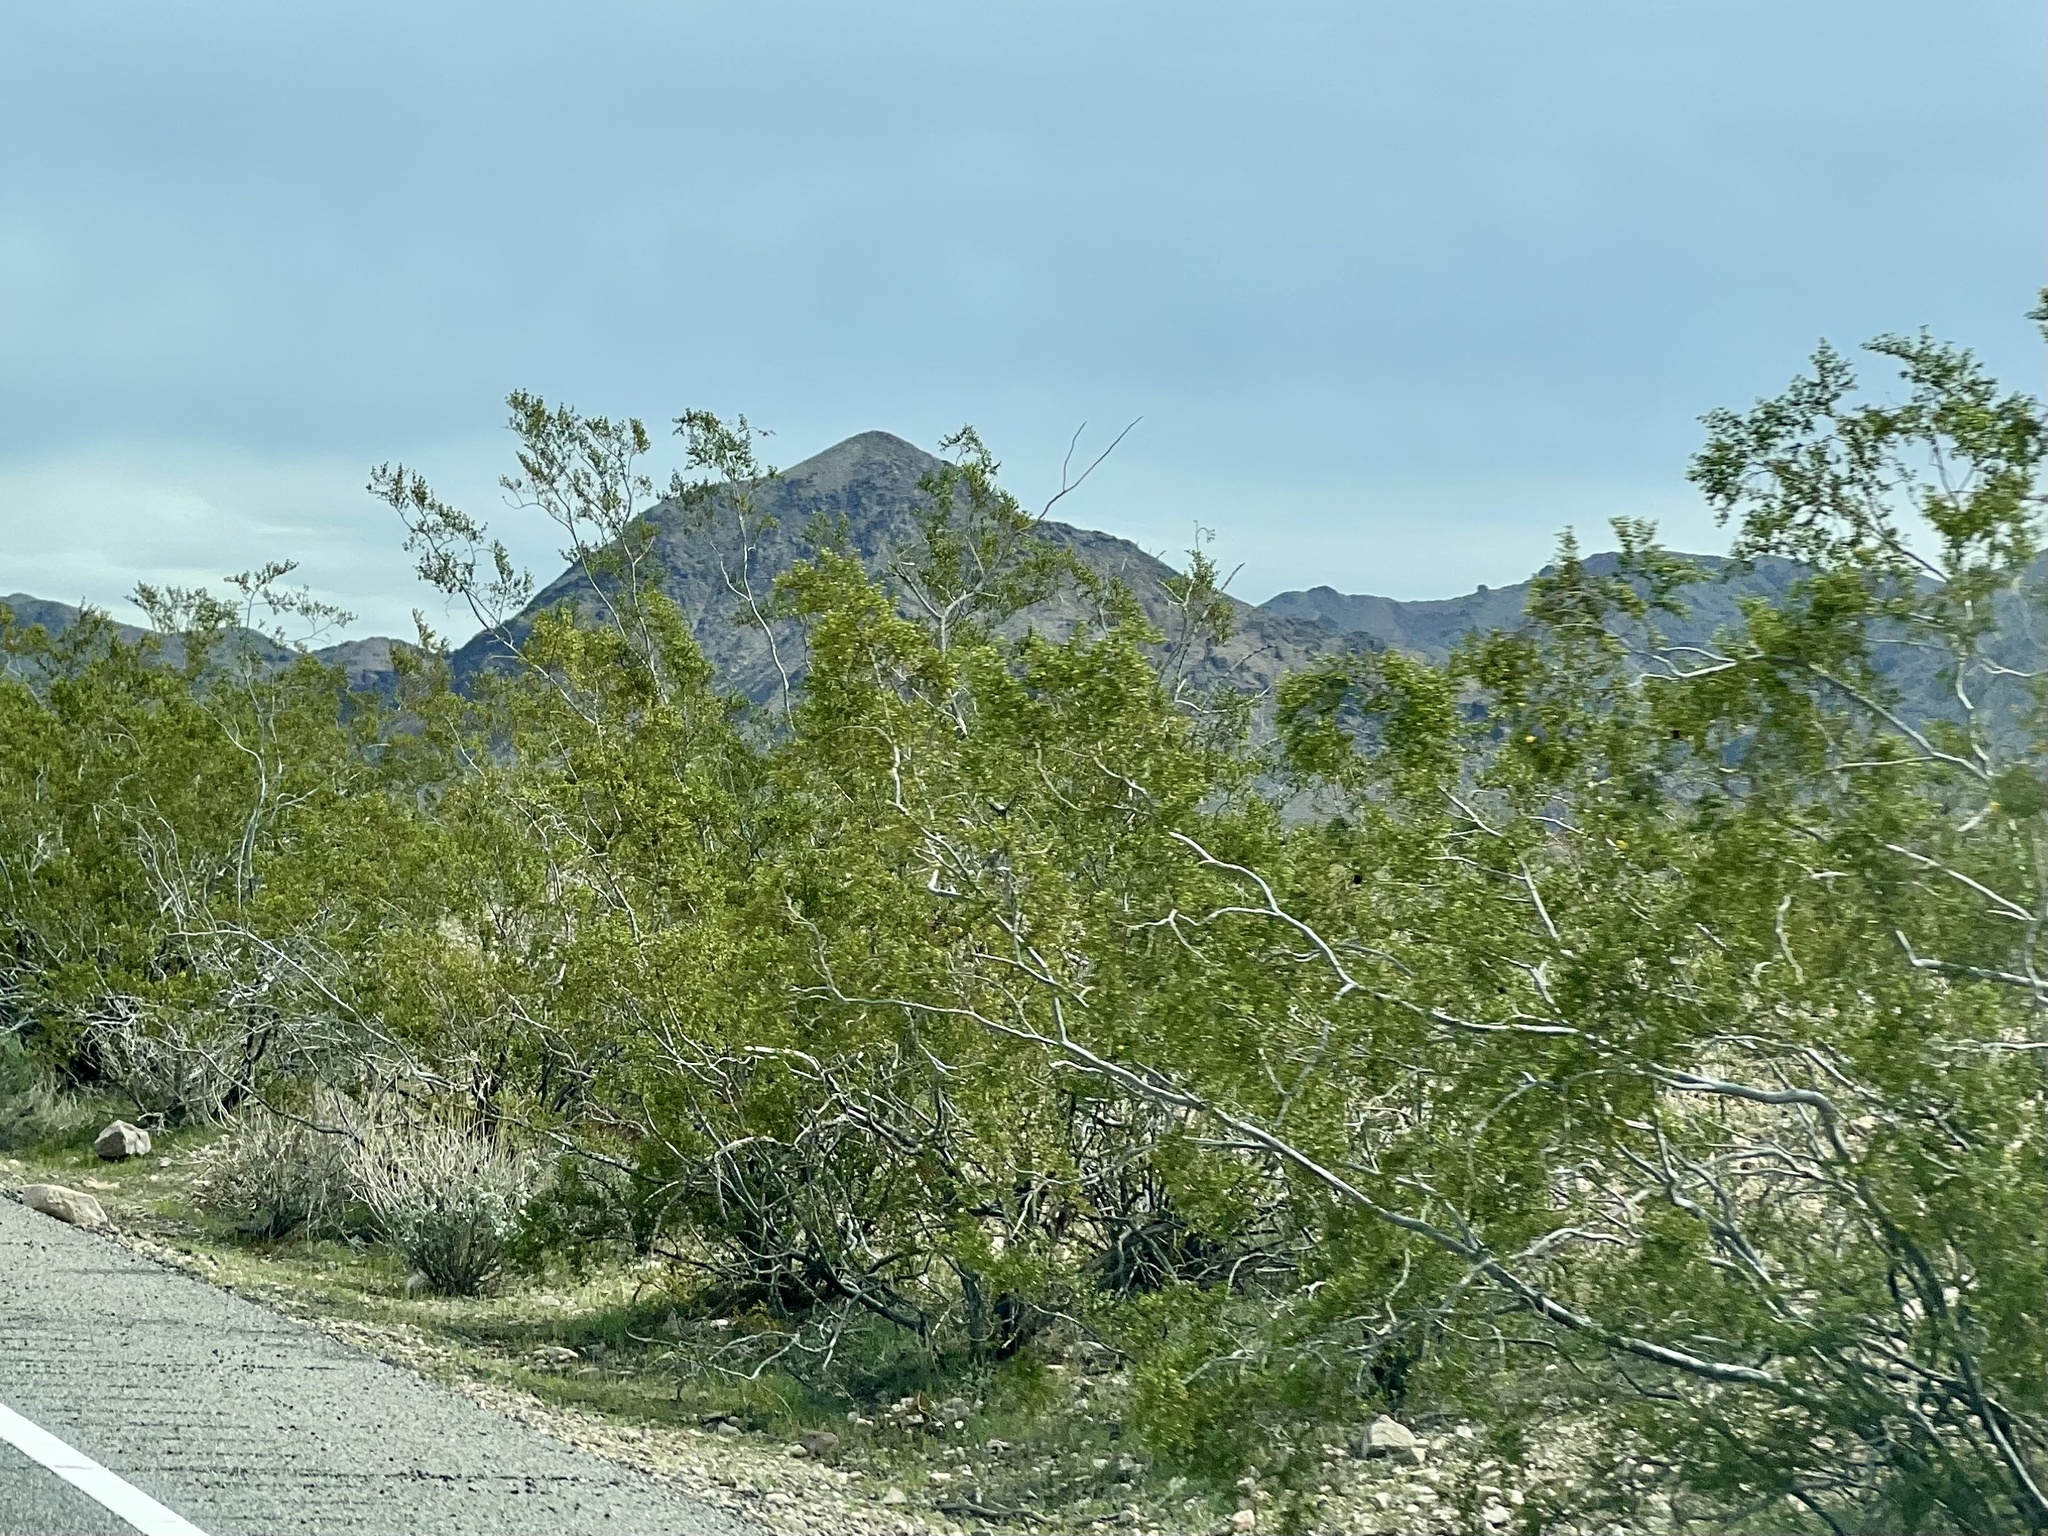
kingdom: Plantae
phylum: Tracheophyta
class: Magnoliopsida
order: Zygophyllales
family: Zygophyllaceae
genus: Larrea
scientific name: Larrea tridentata
